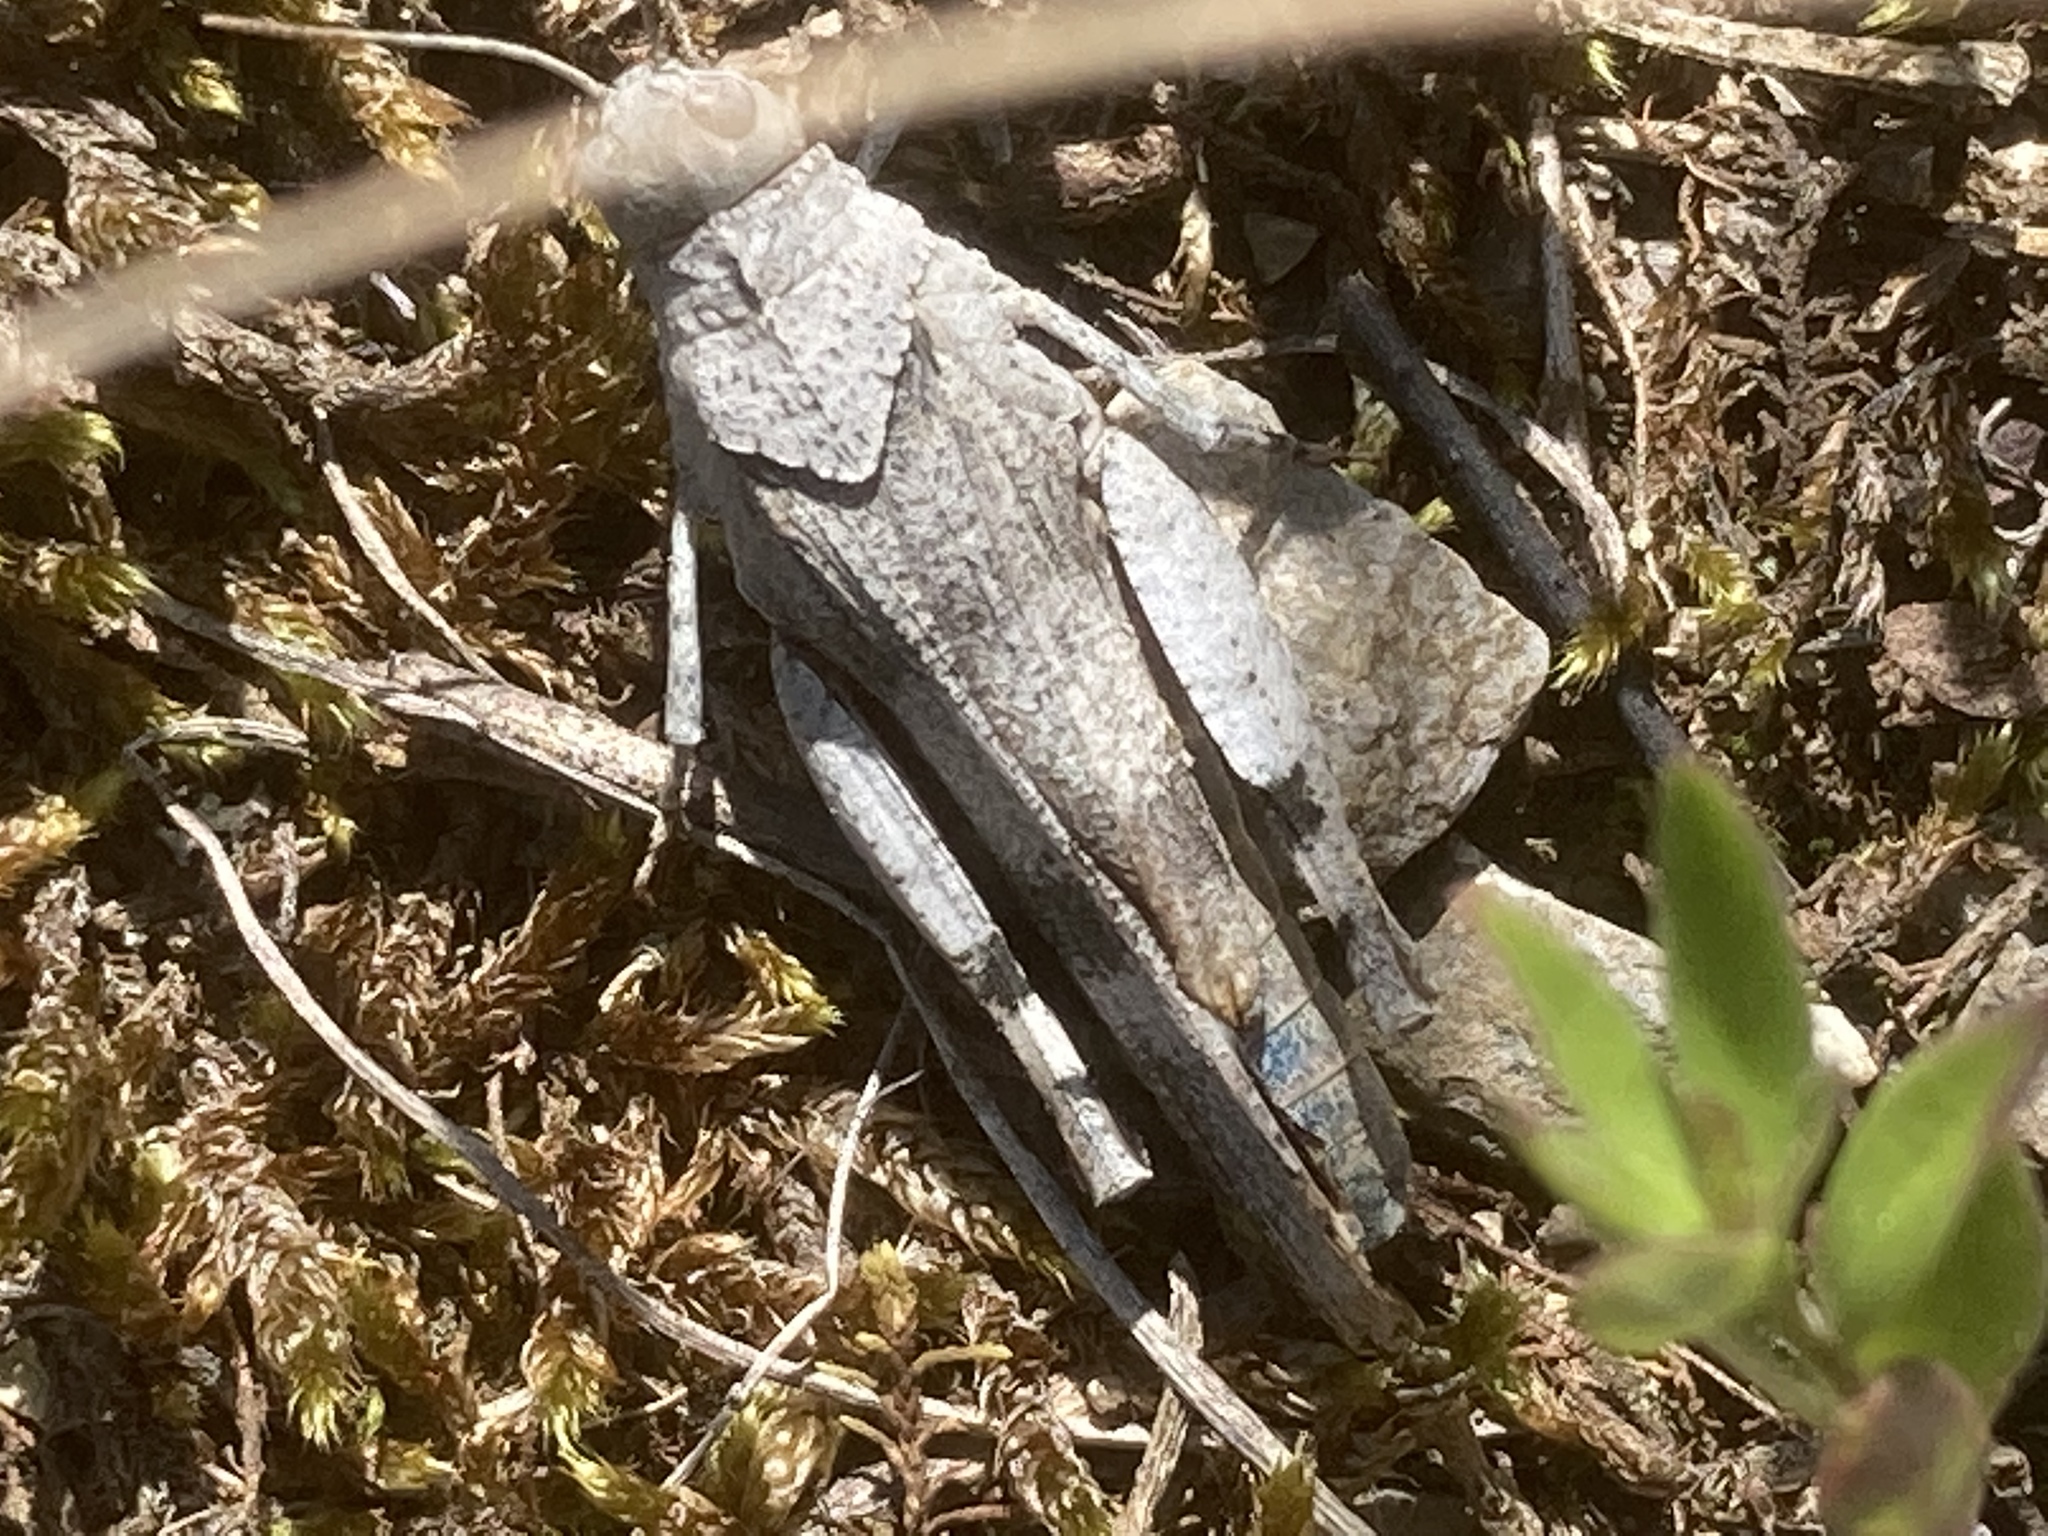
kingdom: Animalia
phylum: Arthropoda
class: Insecta
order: Orthoptera
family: Acrididae
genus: Oedipoda
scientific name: Oedipoda caerulescens
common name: Blue-winged grasshopper
